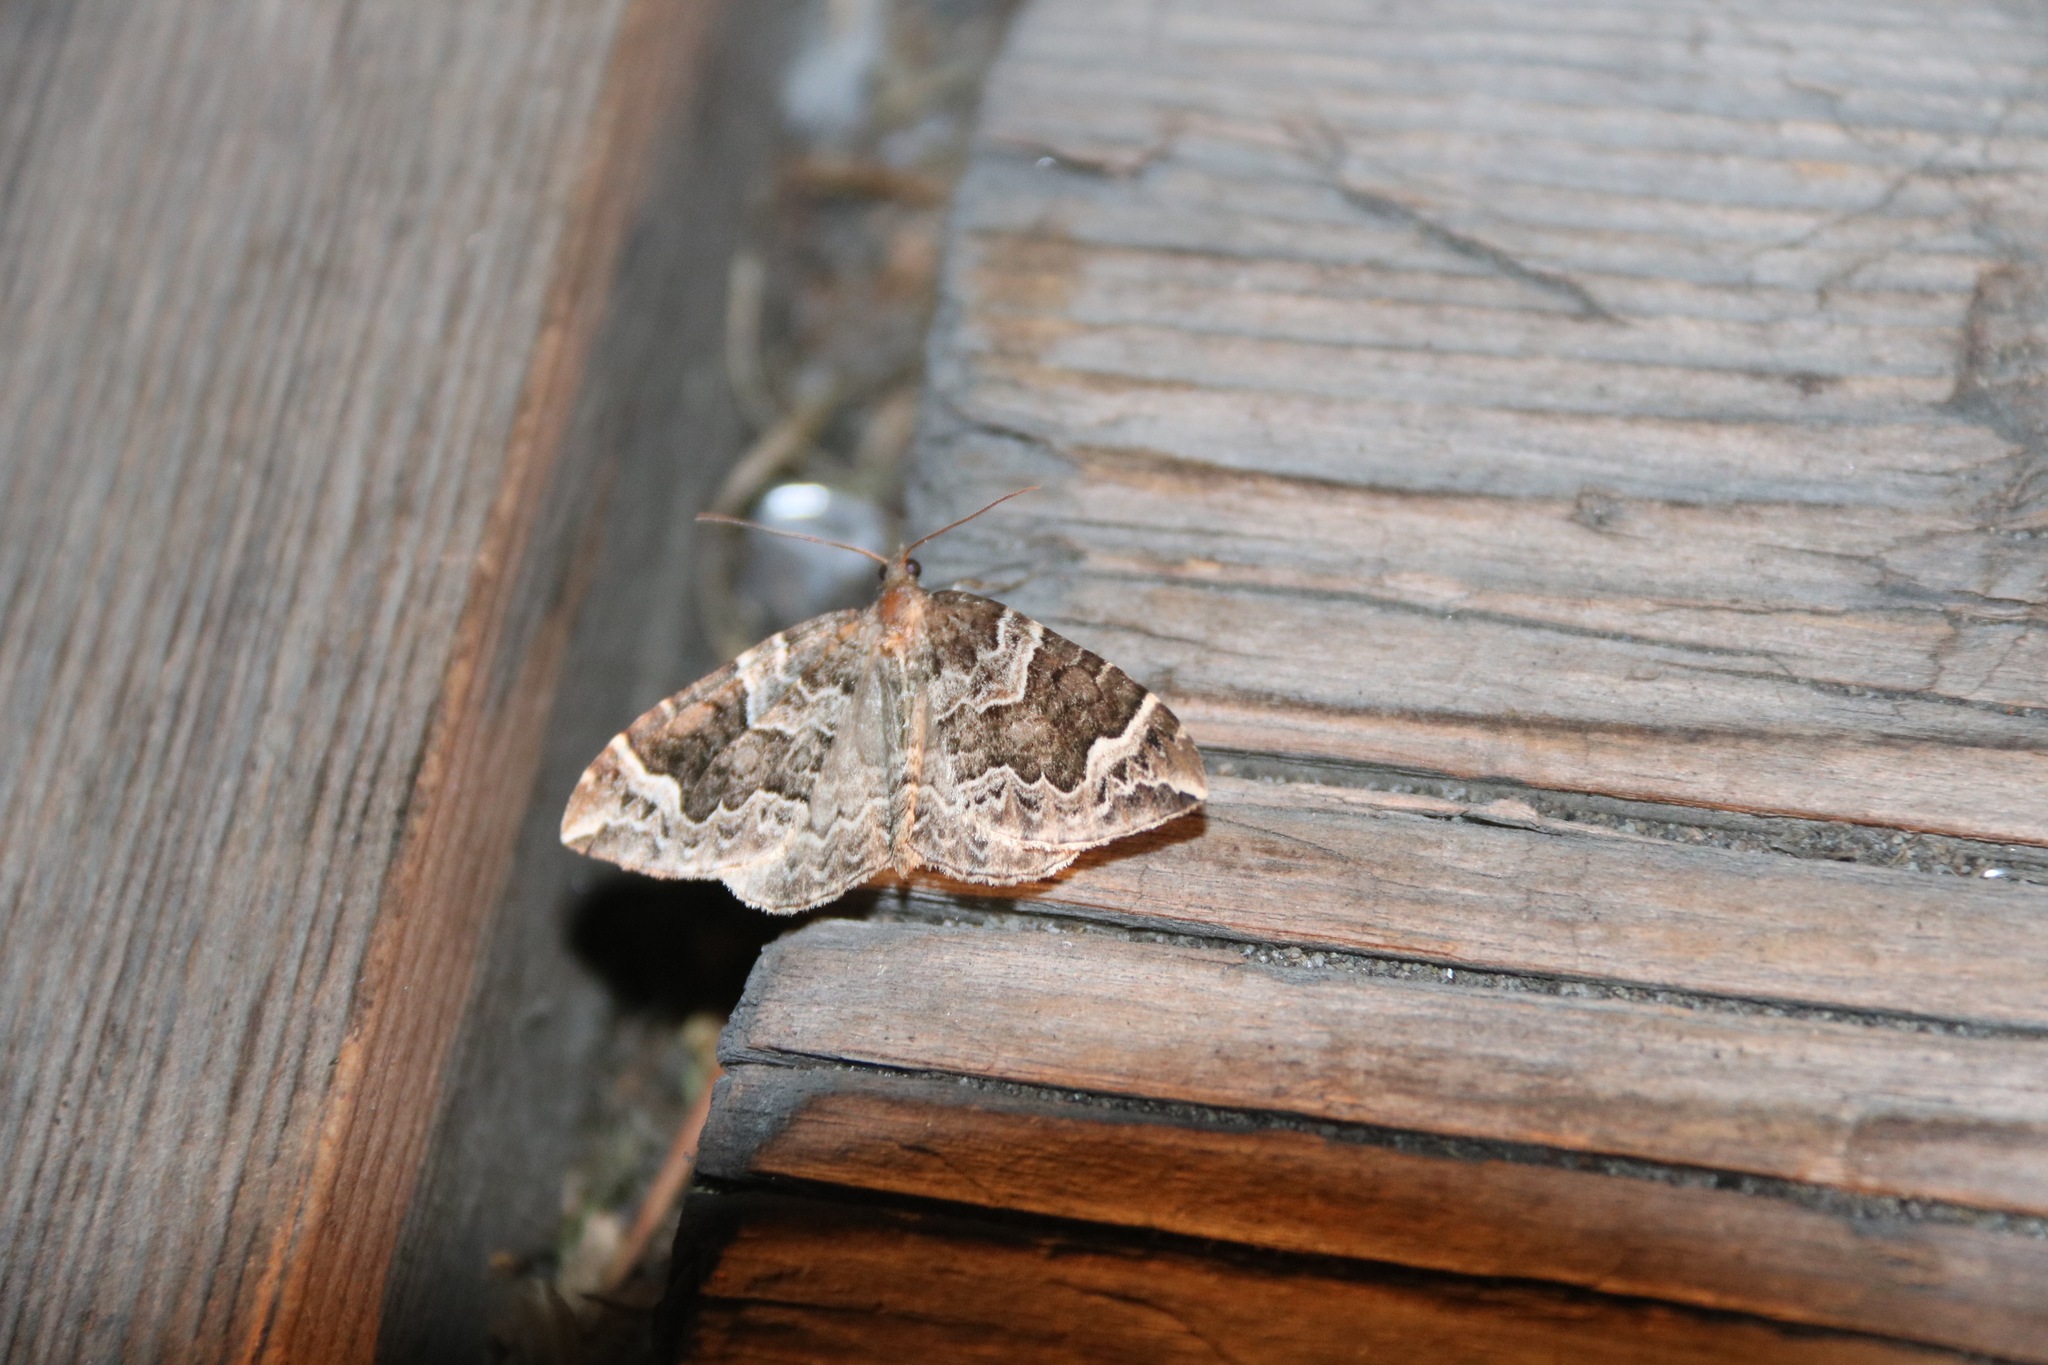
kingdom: Animalia
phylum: Arthropoda
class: Insecta
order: Lepidoptera
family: Geometridae
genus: Eulithis
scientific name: Eulithis prunata
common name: Phoenix
